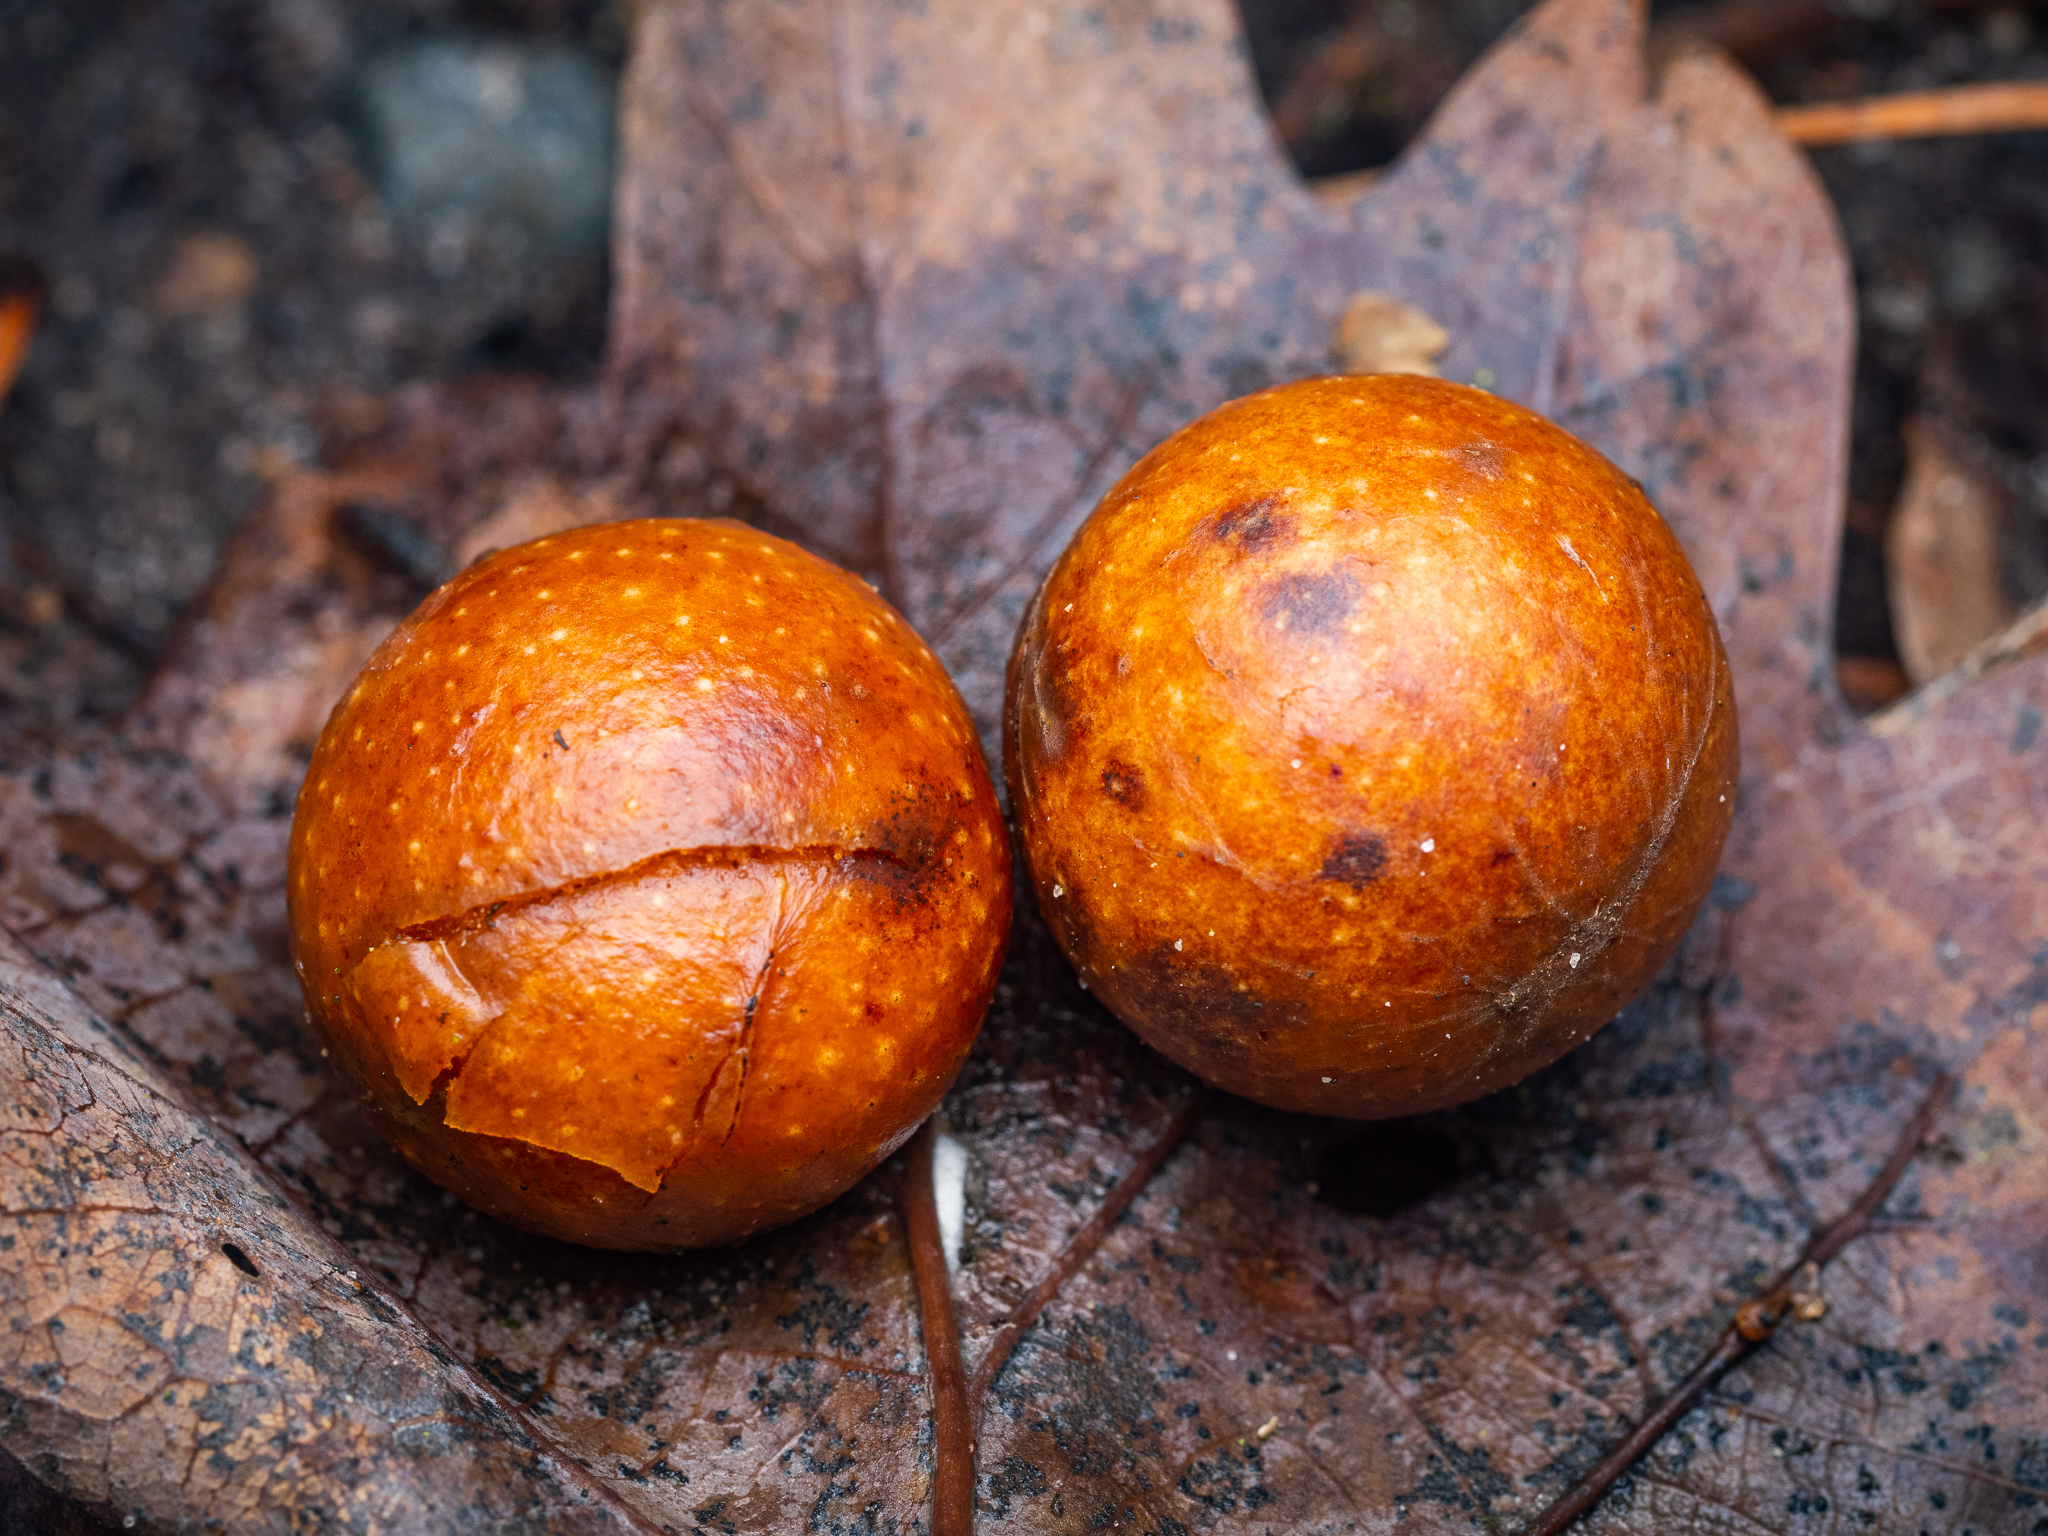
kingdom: Animalia
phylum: Arthropoda
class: Insecta
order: Hymenoptera
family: Cynipidae
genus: Cynips
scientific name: Cynips quercusfolii
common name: Cherry gall
